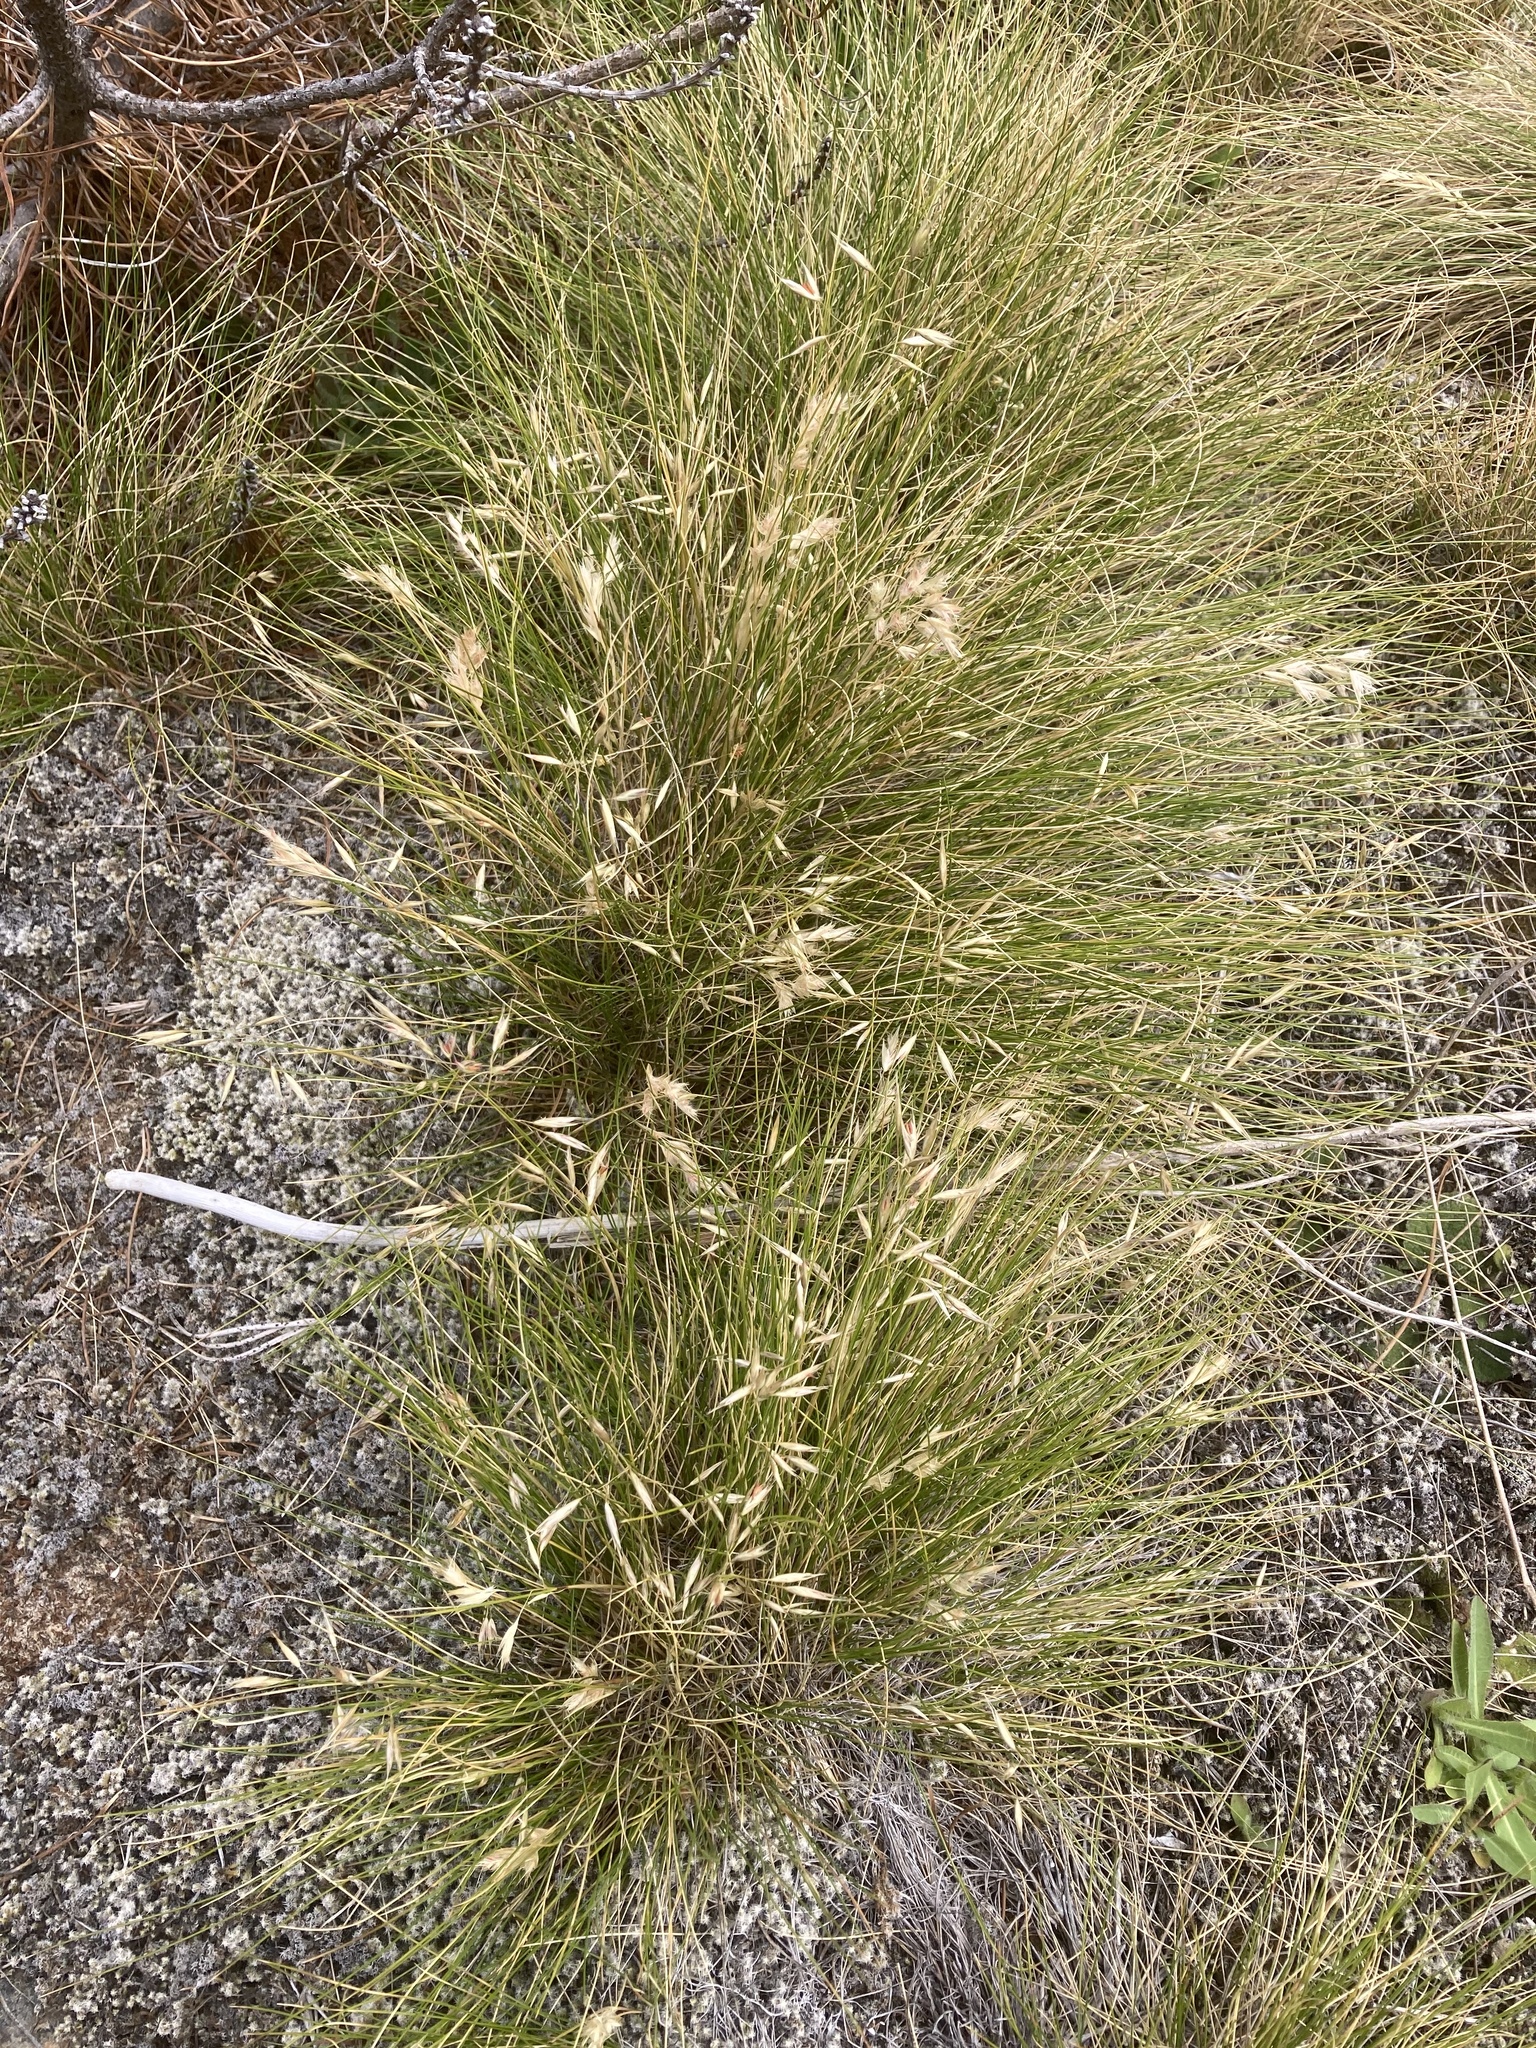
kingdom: Plantae
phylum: Tracheophyta
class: Liliopsida
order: Poales
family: Poaceae
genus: Rytidosperma
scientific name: Rytidosperma setifolium
